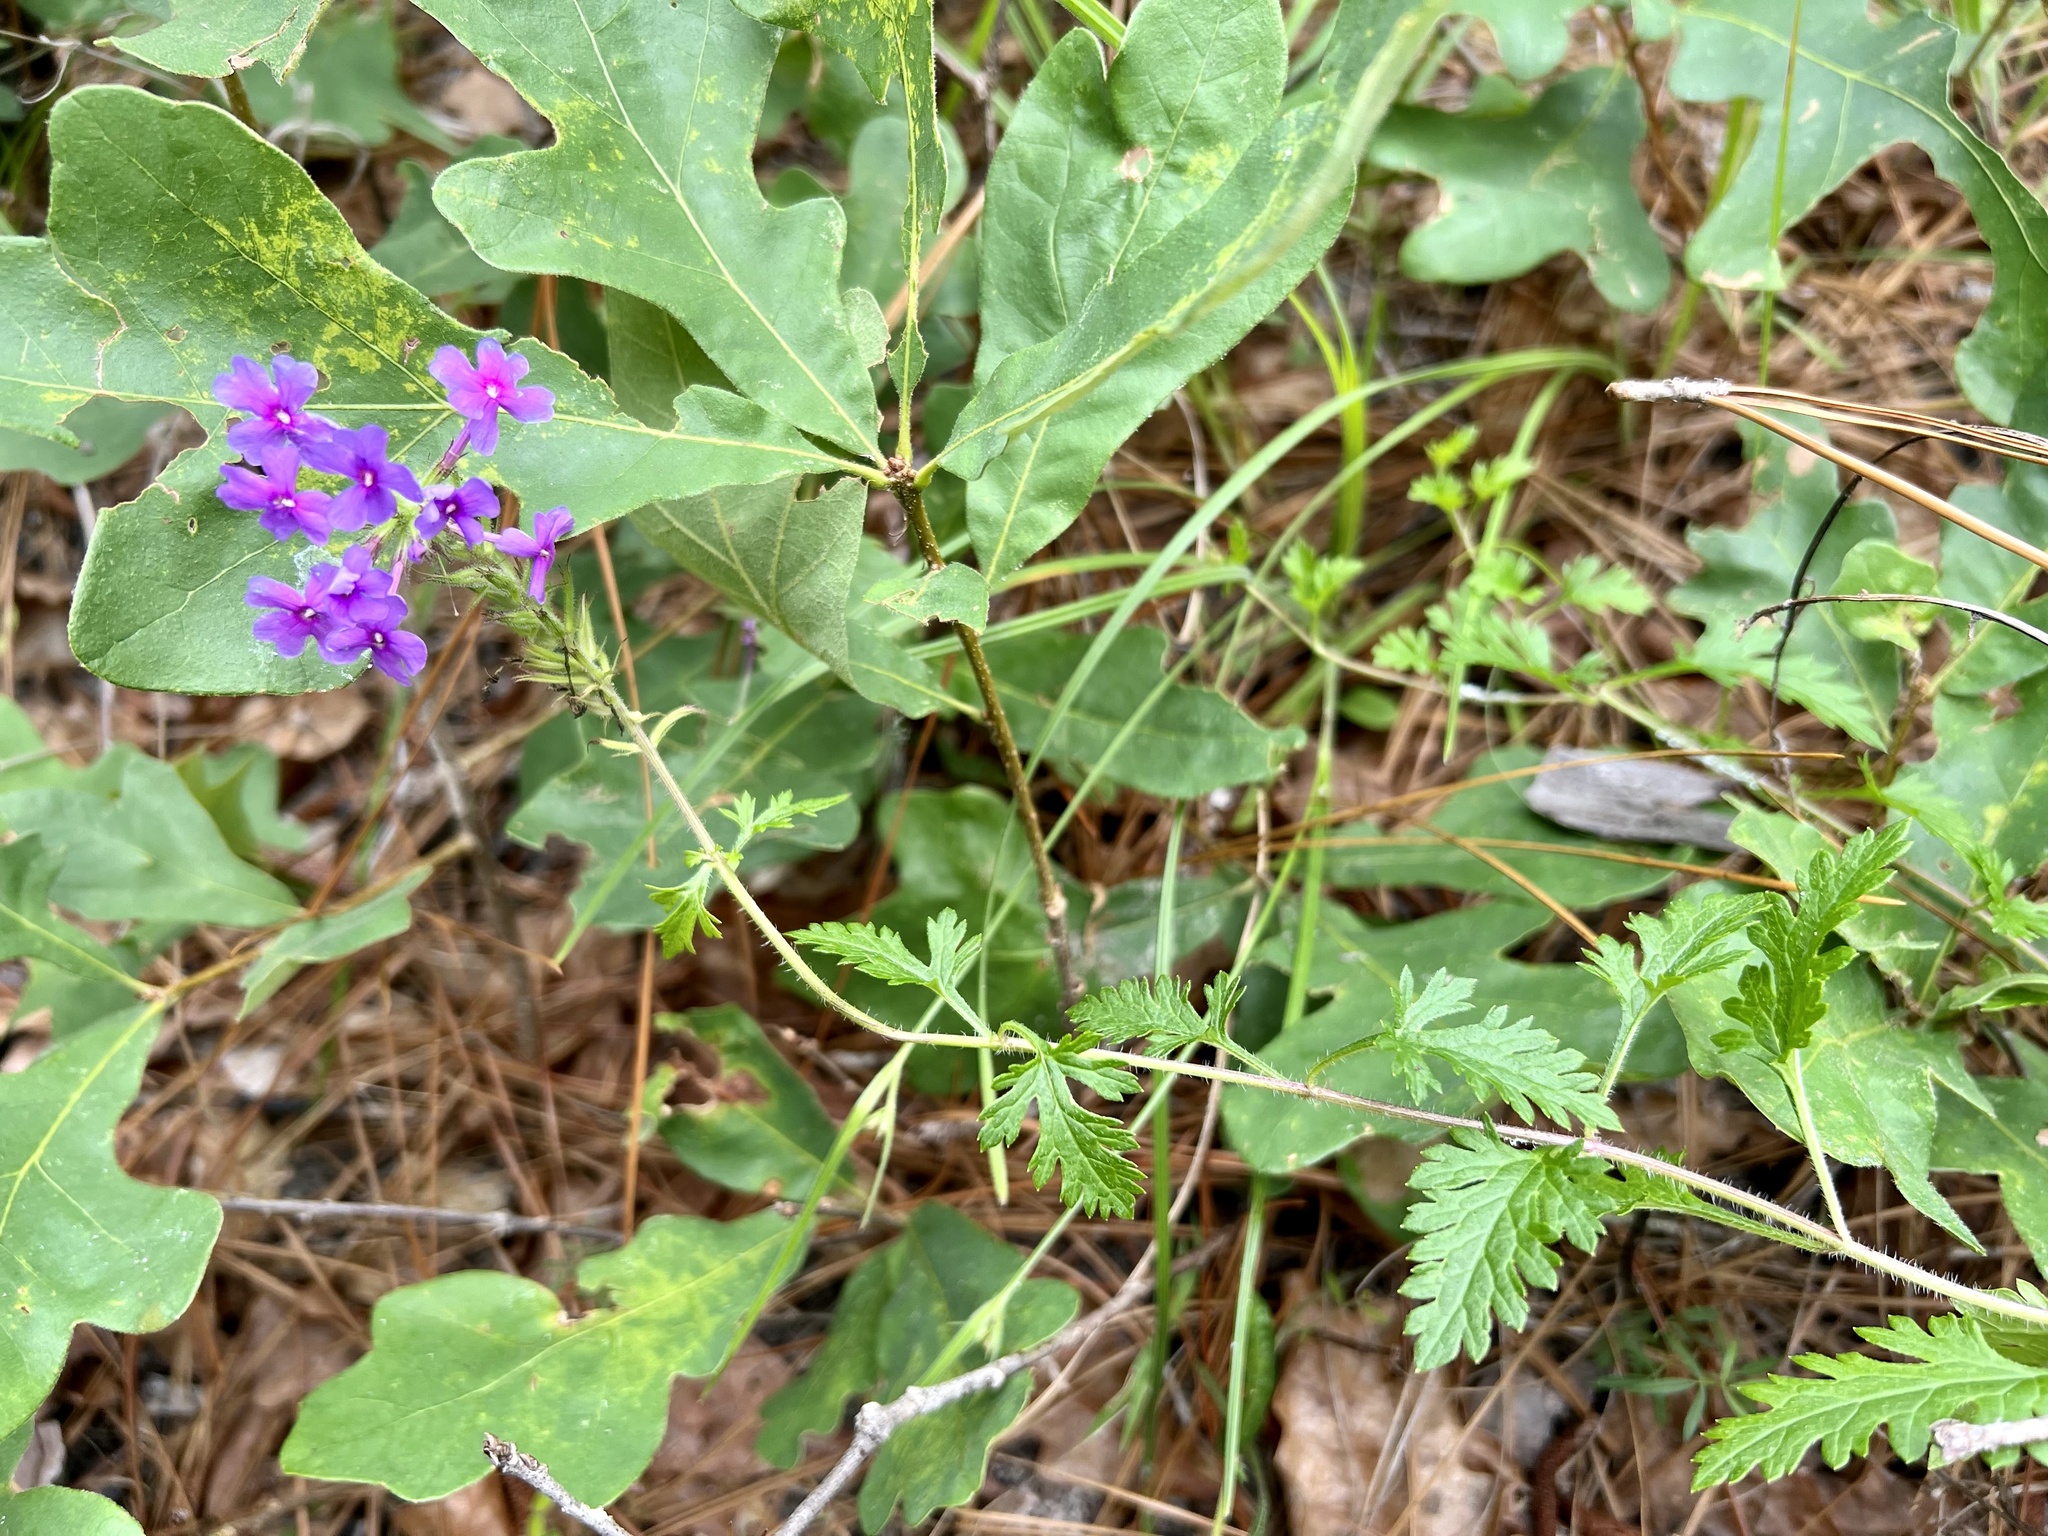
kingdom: Plantae
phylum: Tracheophyta
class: Magnoliopsida
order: Lamiales
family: Verbenaceae
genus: Verbena
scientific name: Verbena canadensis
